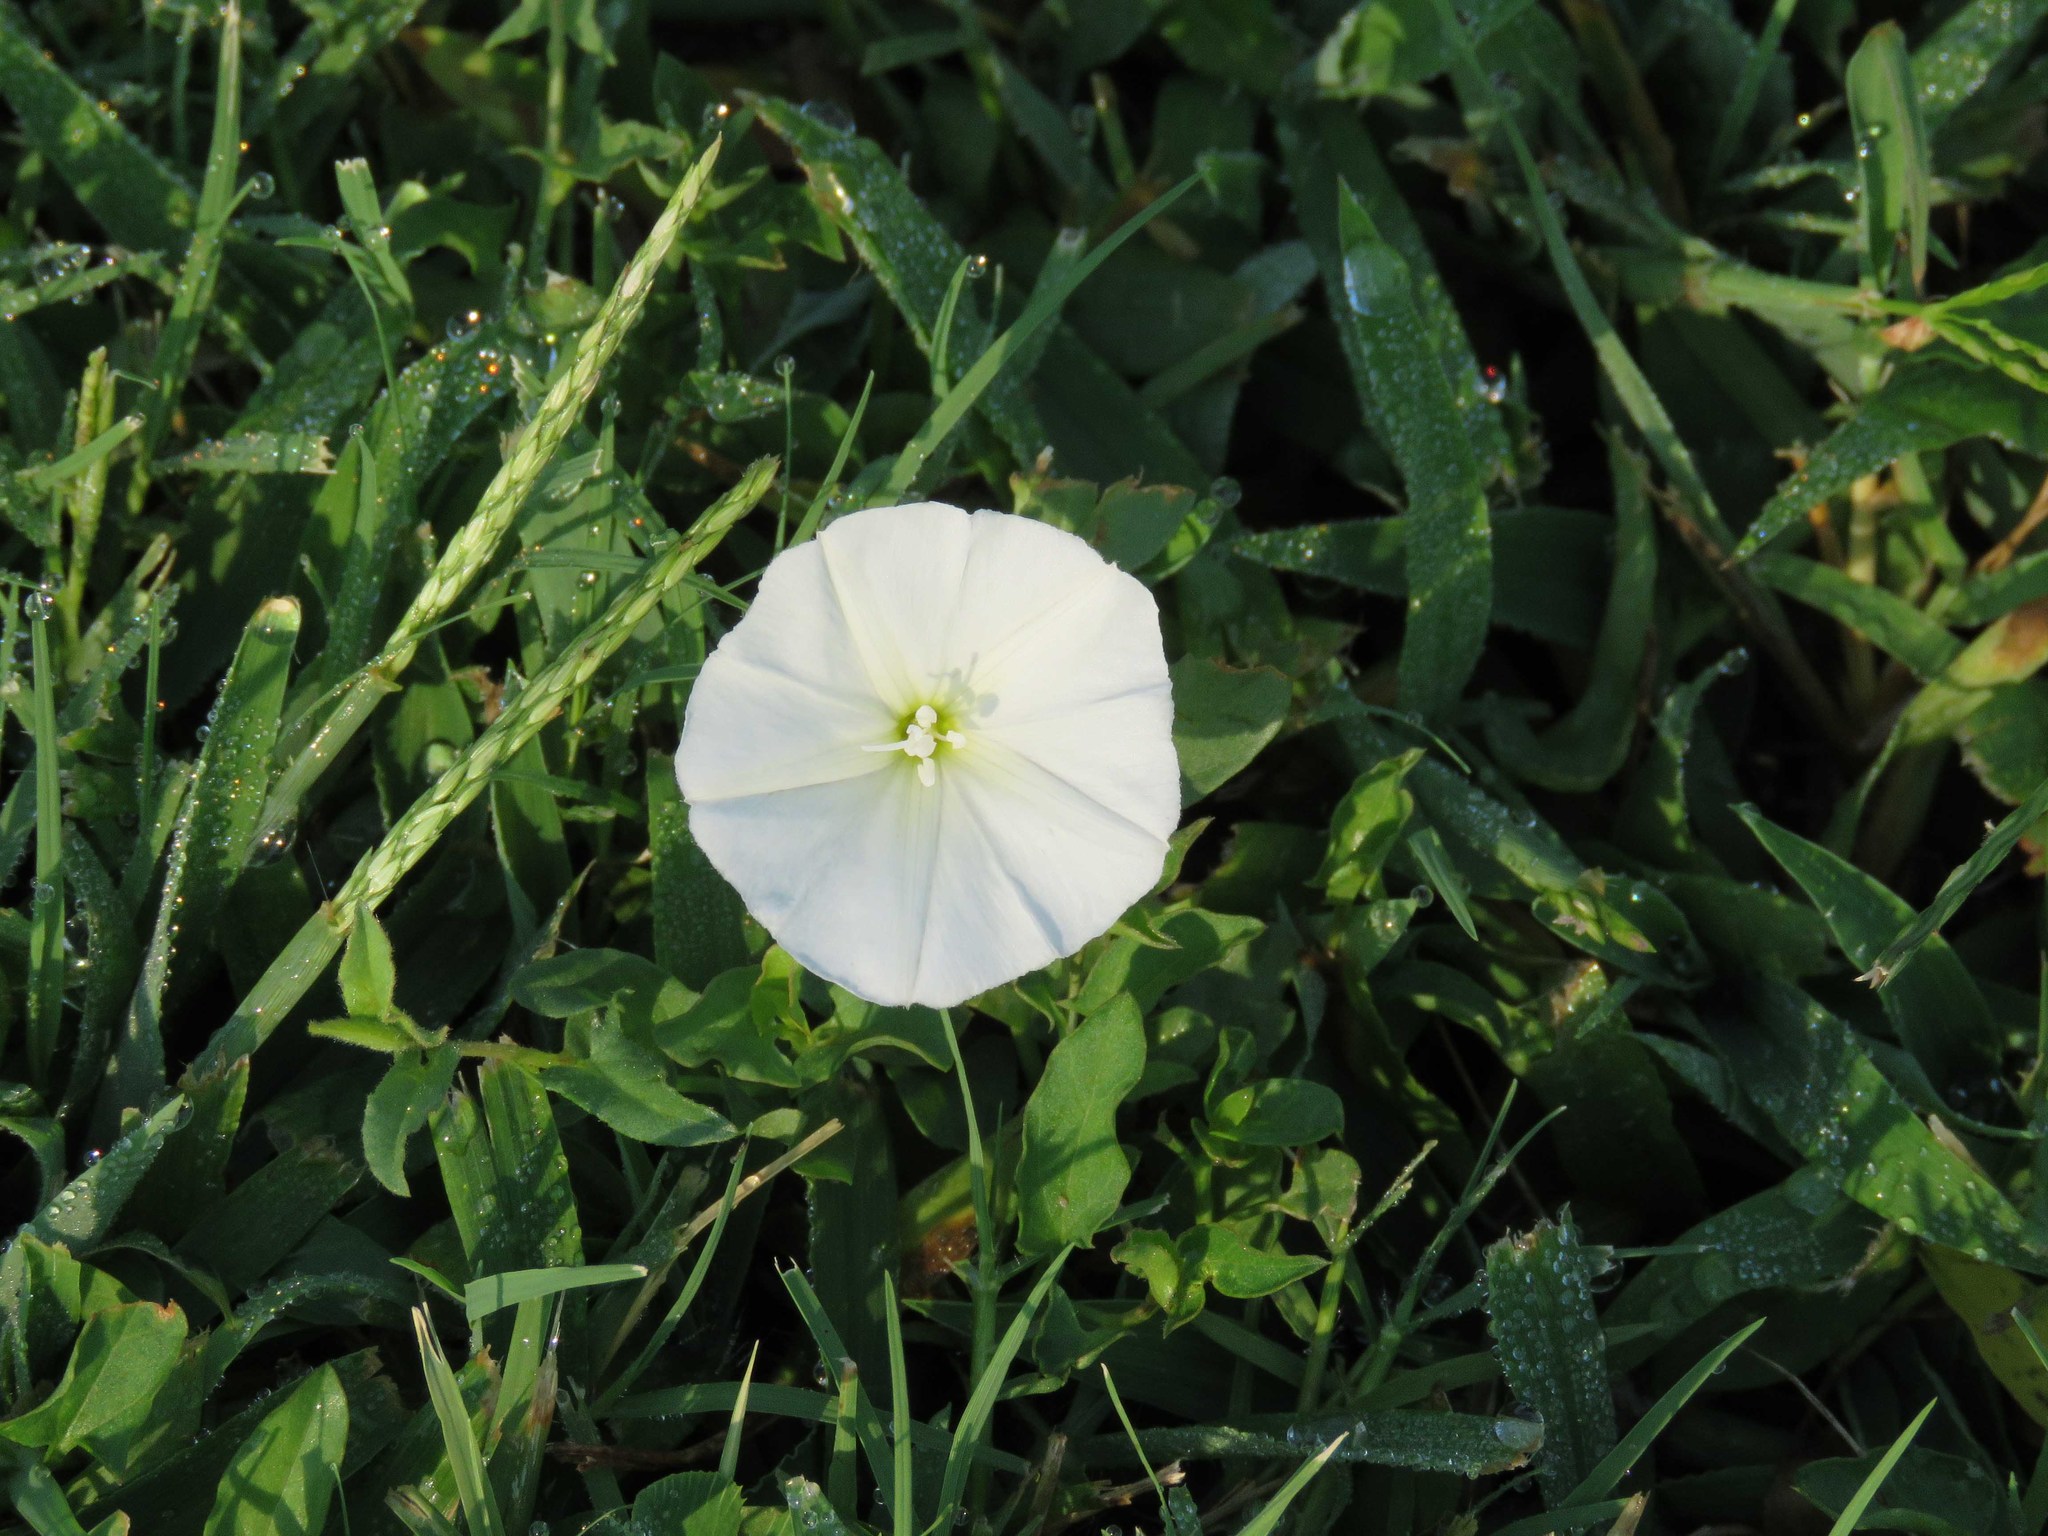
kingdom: Plantae
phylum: Tracheophyta
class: Magnoliopsida
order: Solanales
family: Convolvulaceae
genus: Convolvulus
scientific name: Convolvulus arvensis
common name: Field bindweed
